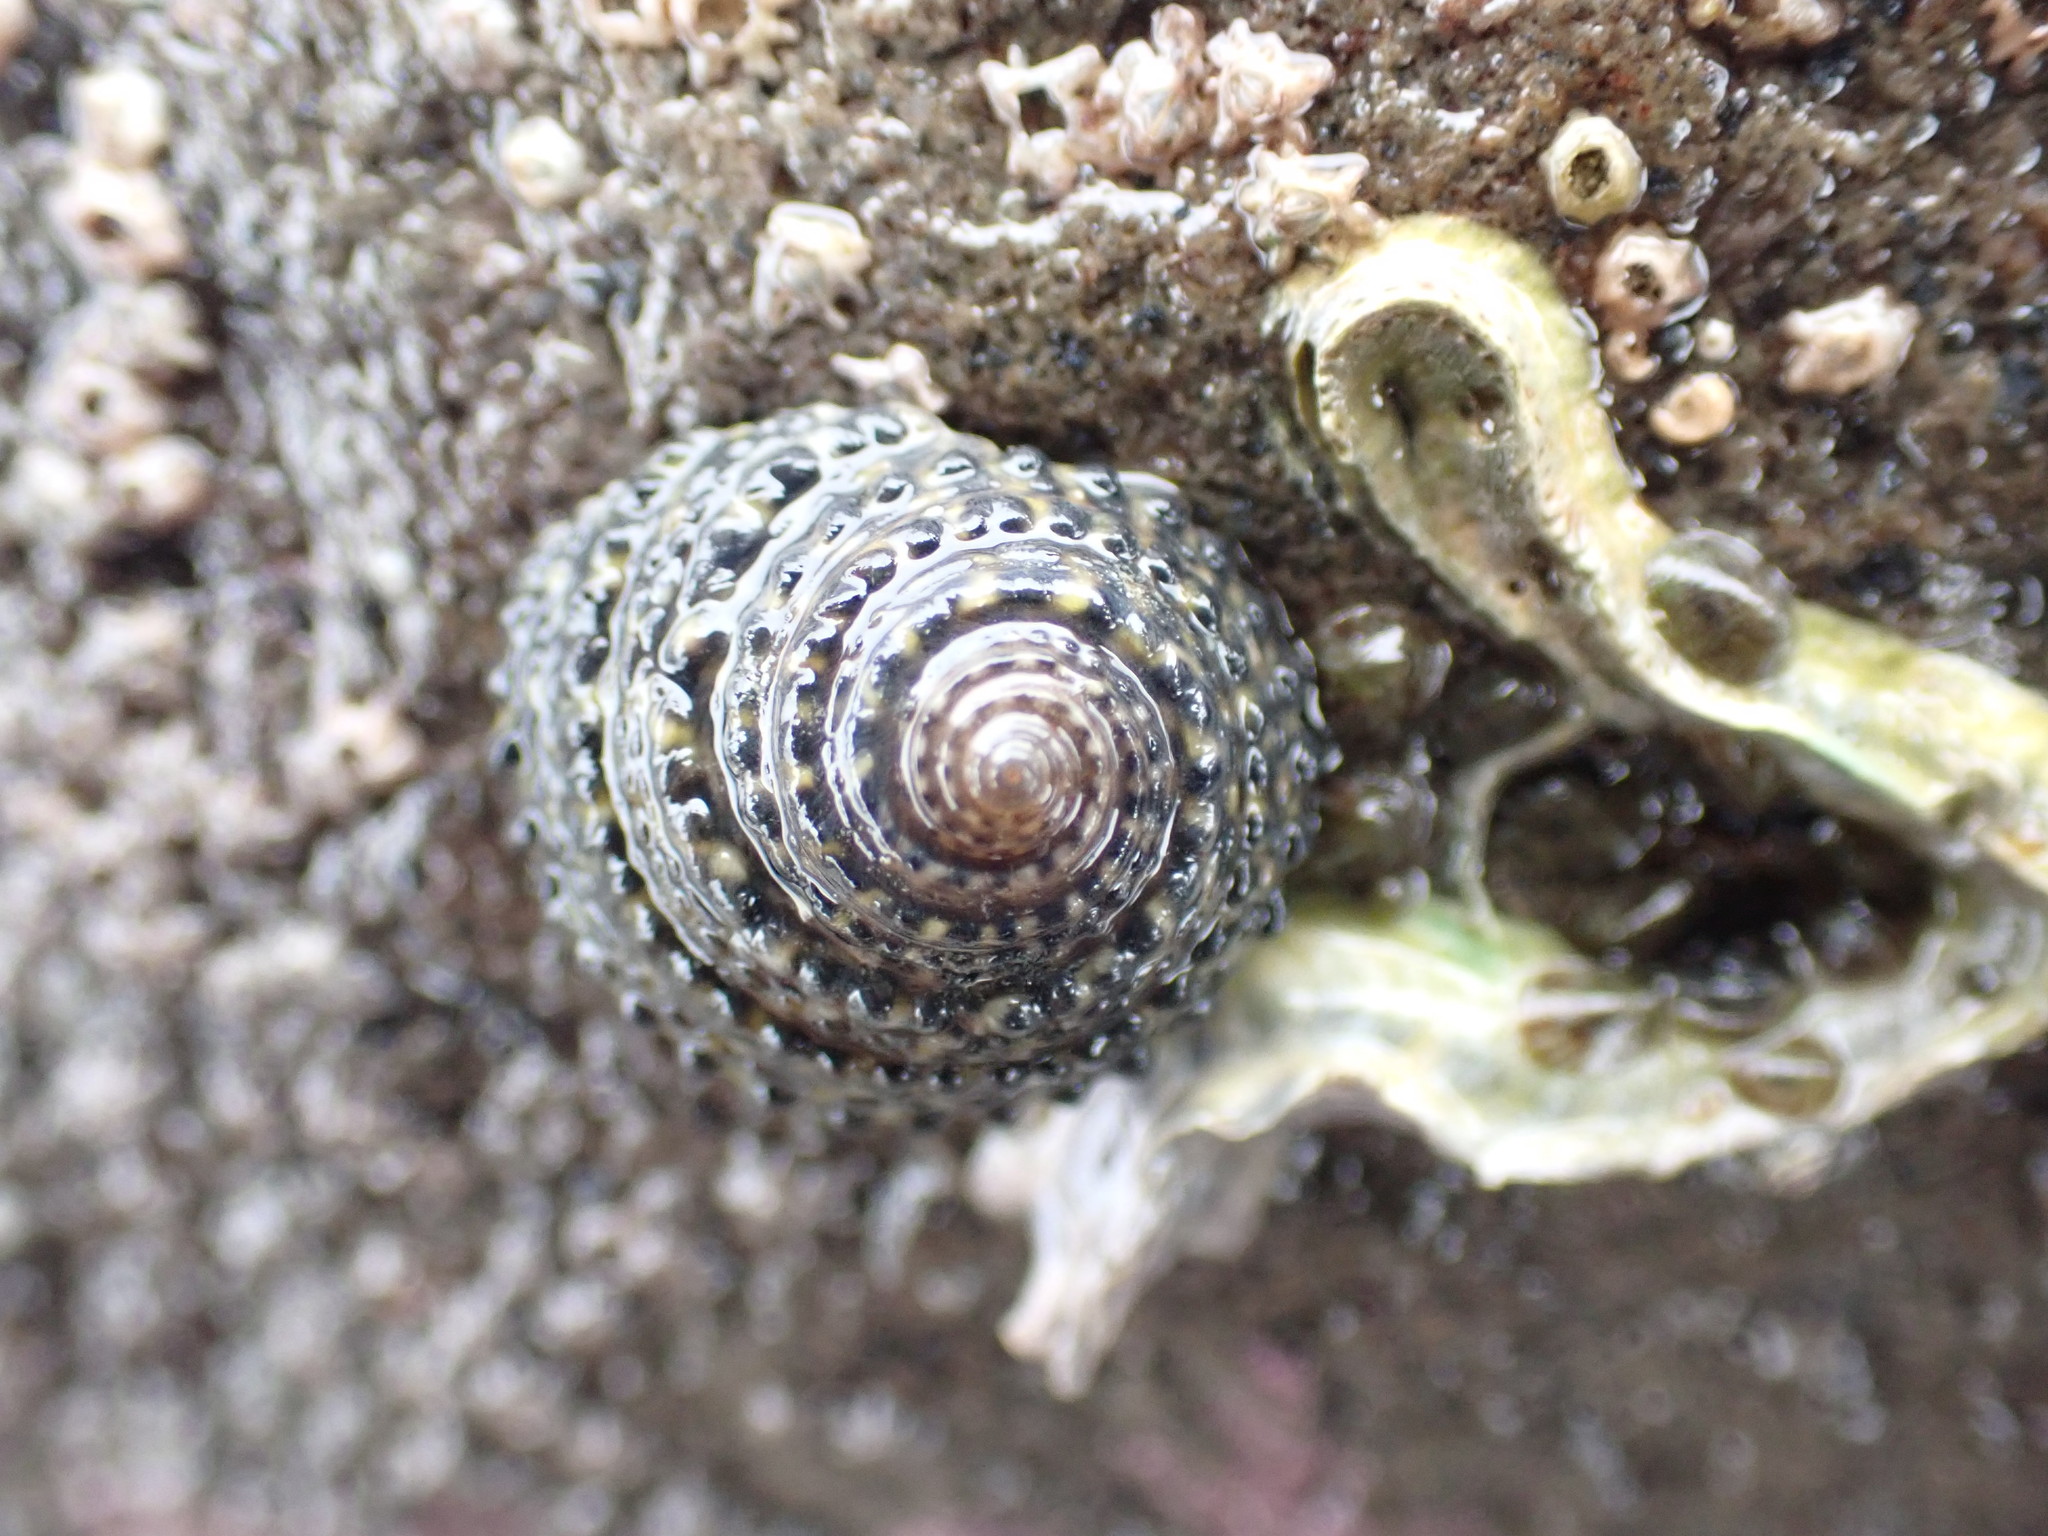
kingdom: Animalia
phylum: Mollusca
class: Gastropoda
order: Trochida
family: Trochidae
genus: Diloma
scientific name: Diloma bicanaliculatum
